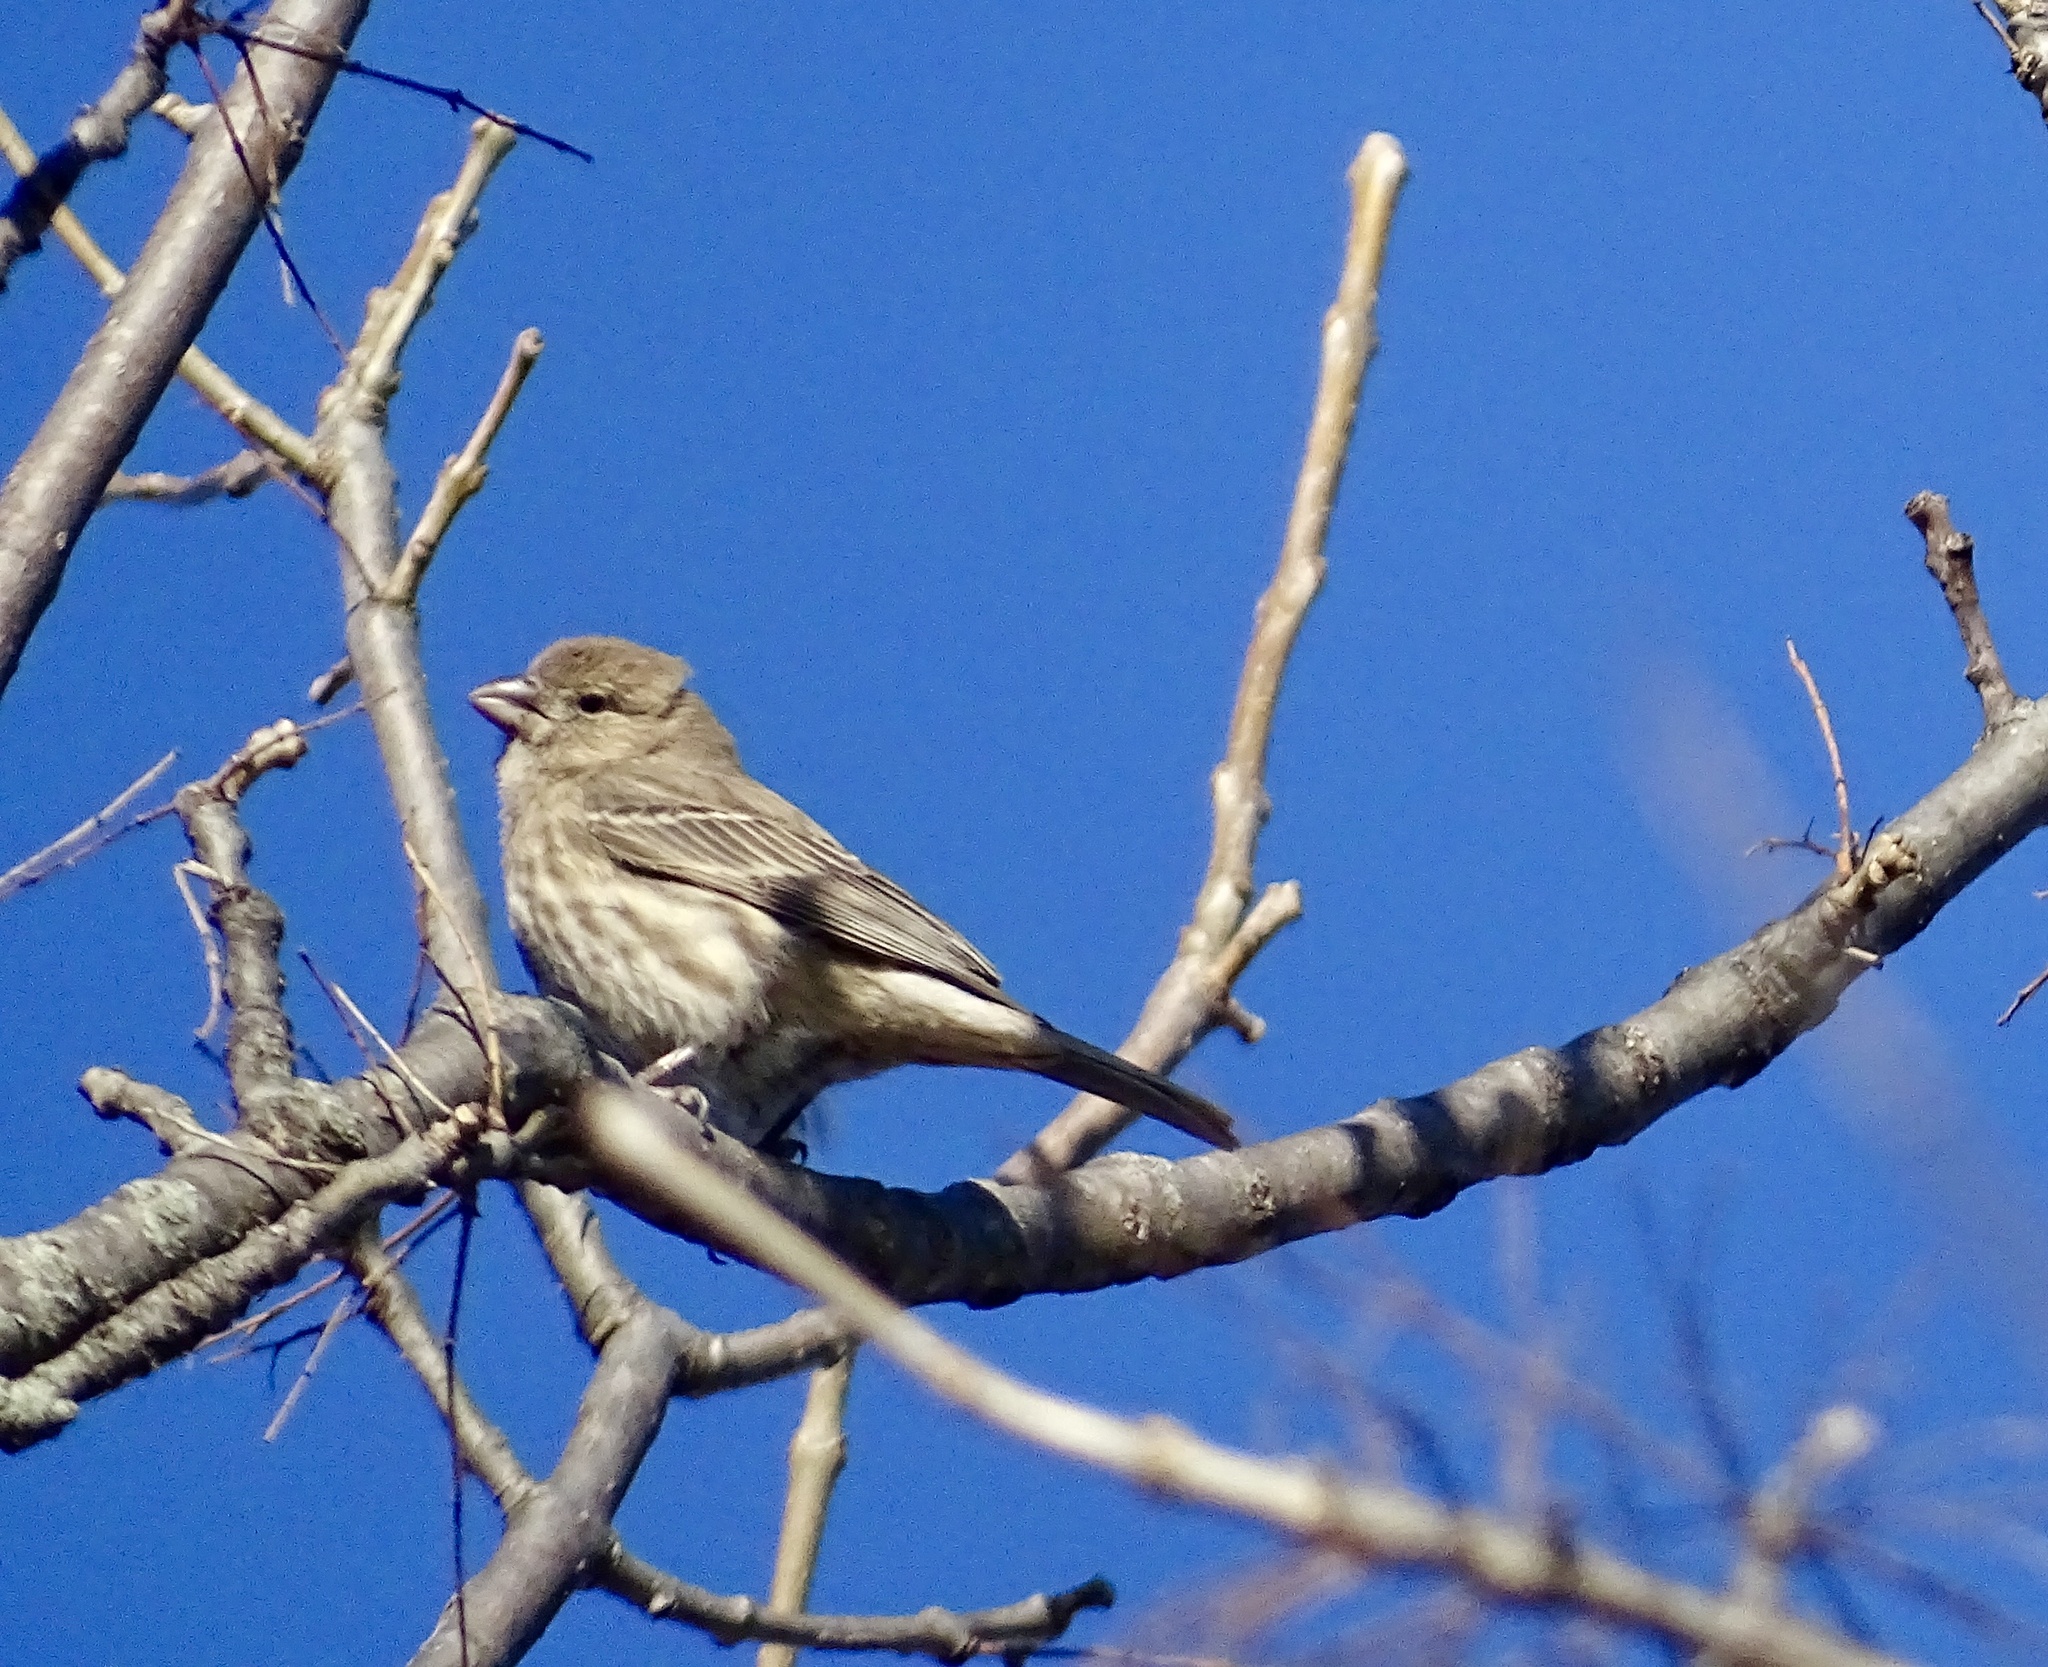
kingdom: Animalia
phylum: Chordata
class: Aves
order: Passeriformes
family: Fringillidae
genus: Haemorhous
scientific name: Haemorhous mexicanus
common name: House finch
